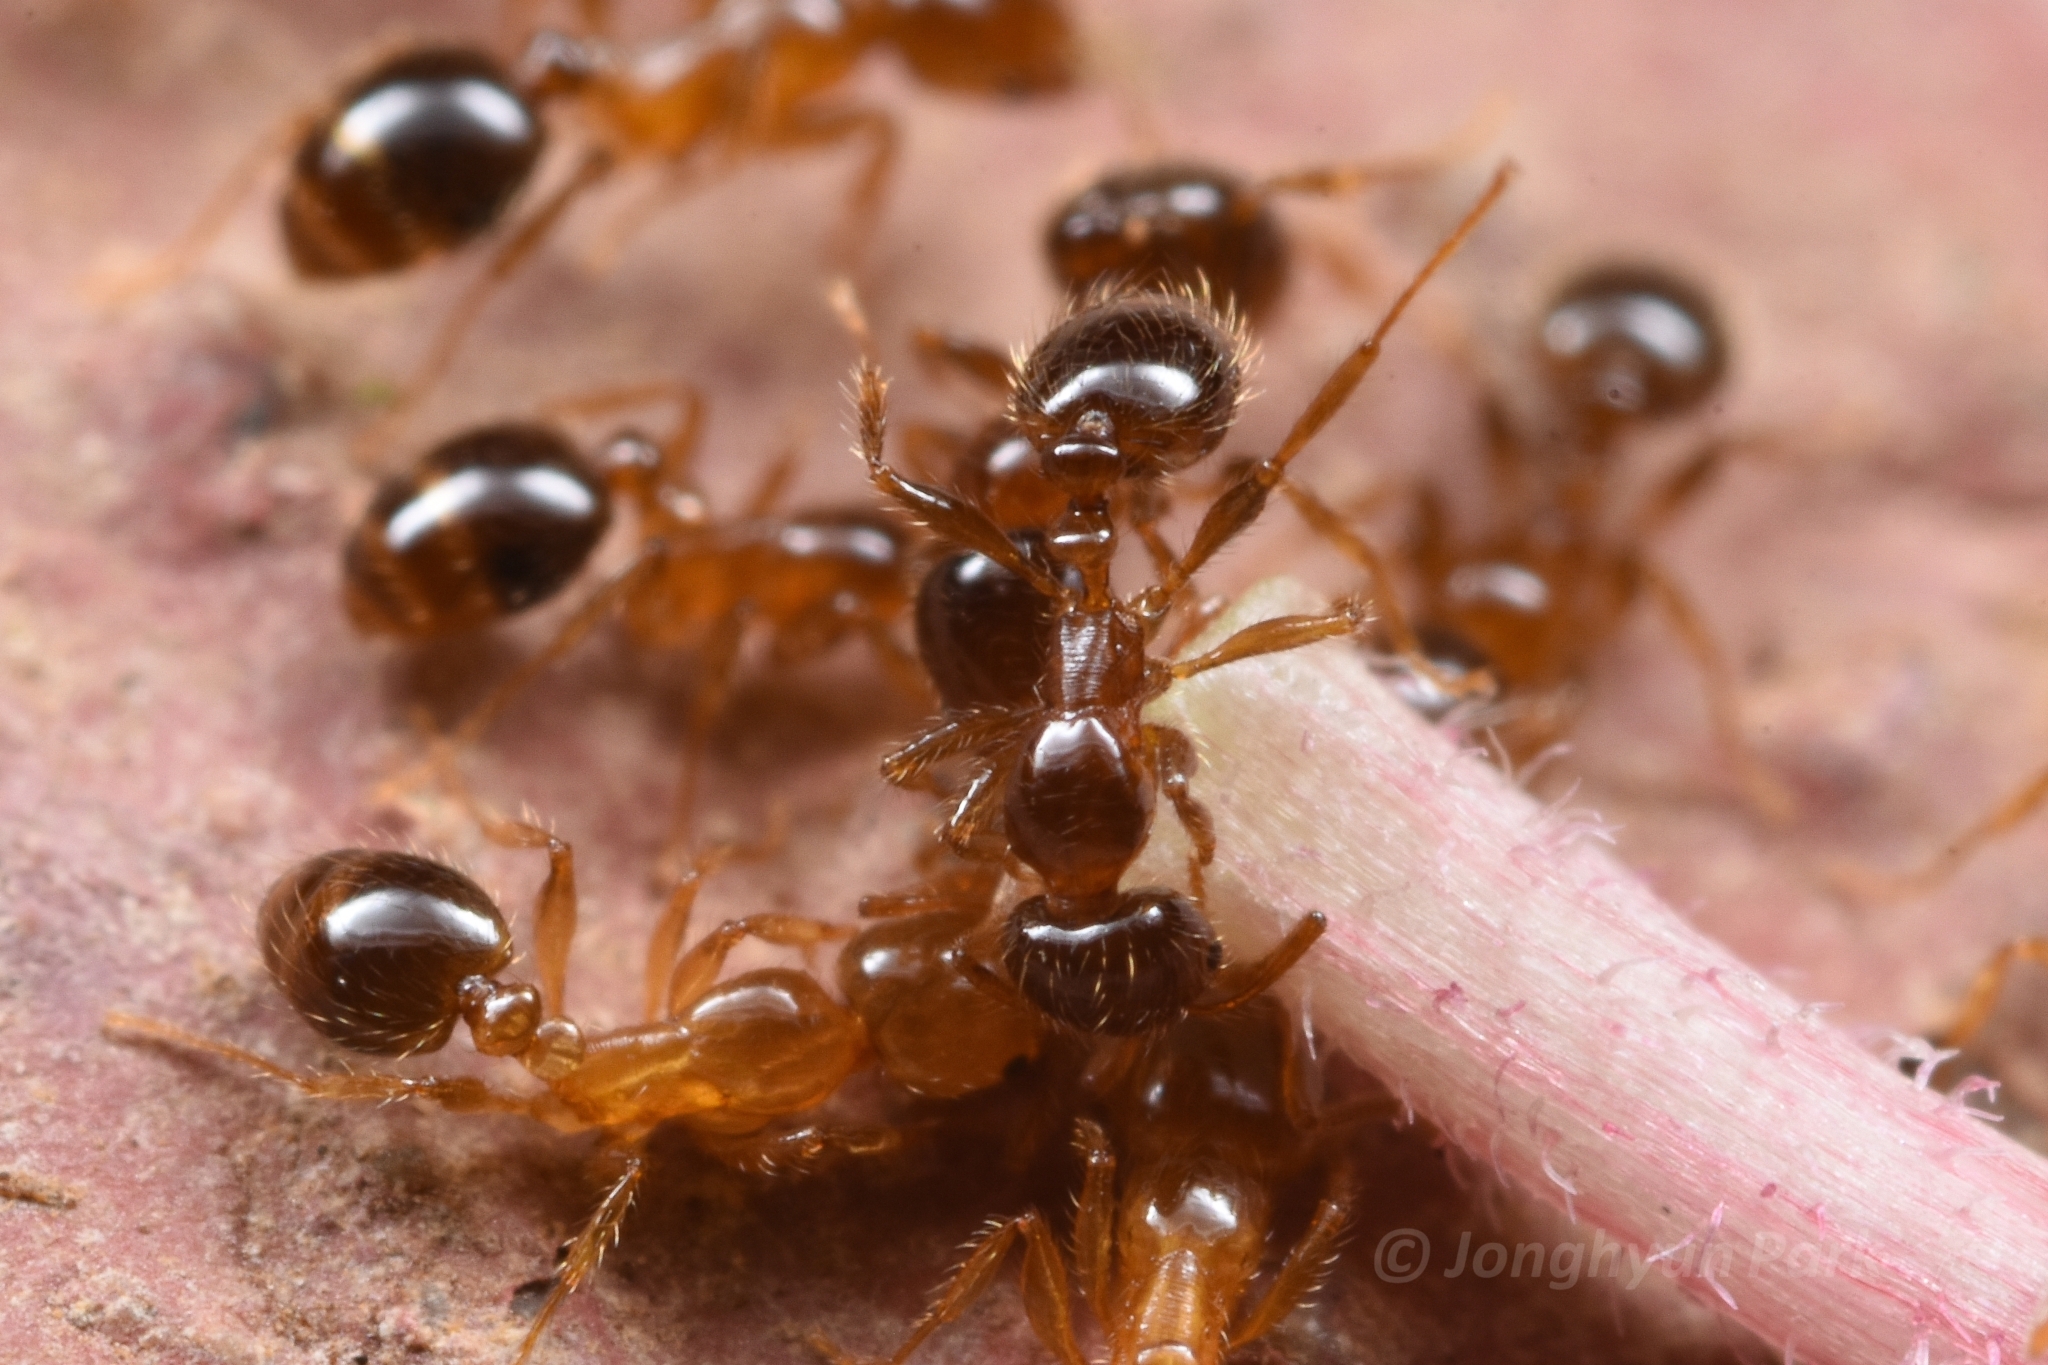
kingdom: Animalia
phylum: Arthropoda
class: Insecta
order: Hymenoptera
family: Formicidae
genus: Erromyrma
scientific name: Erromyrma latinodis
